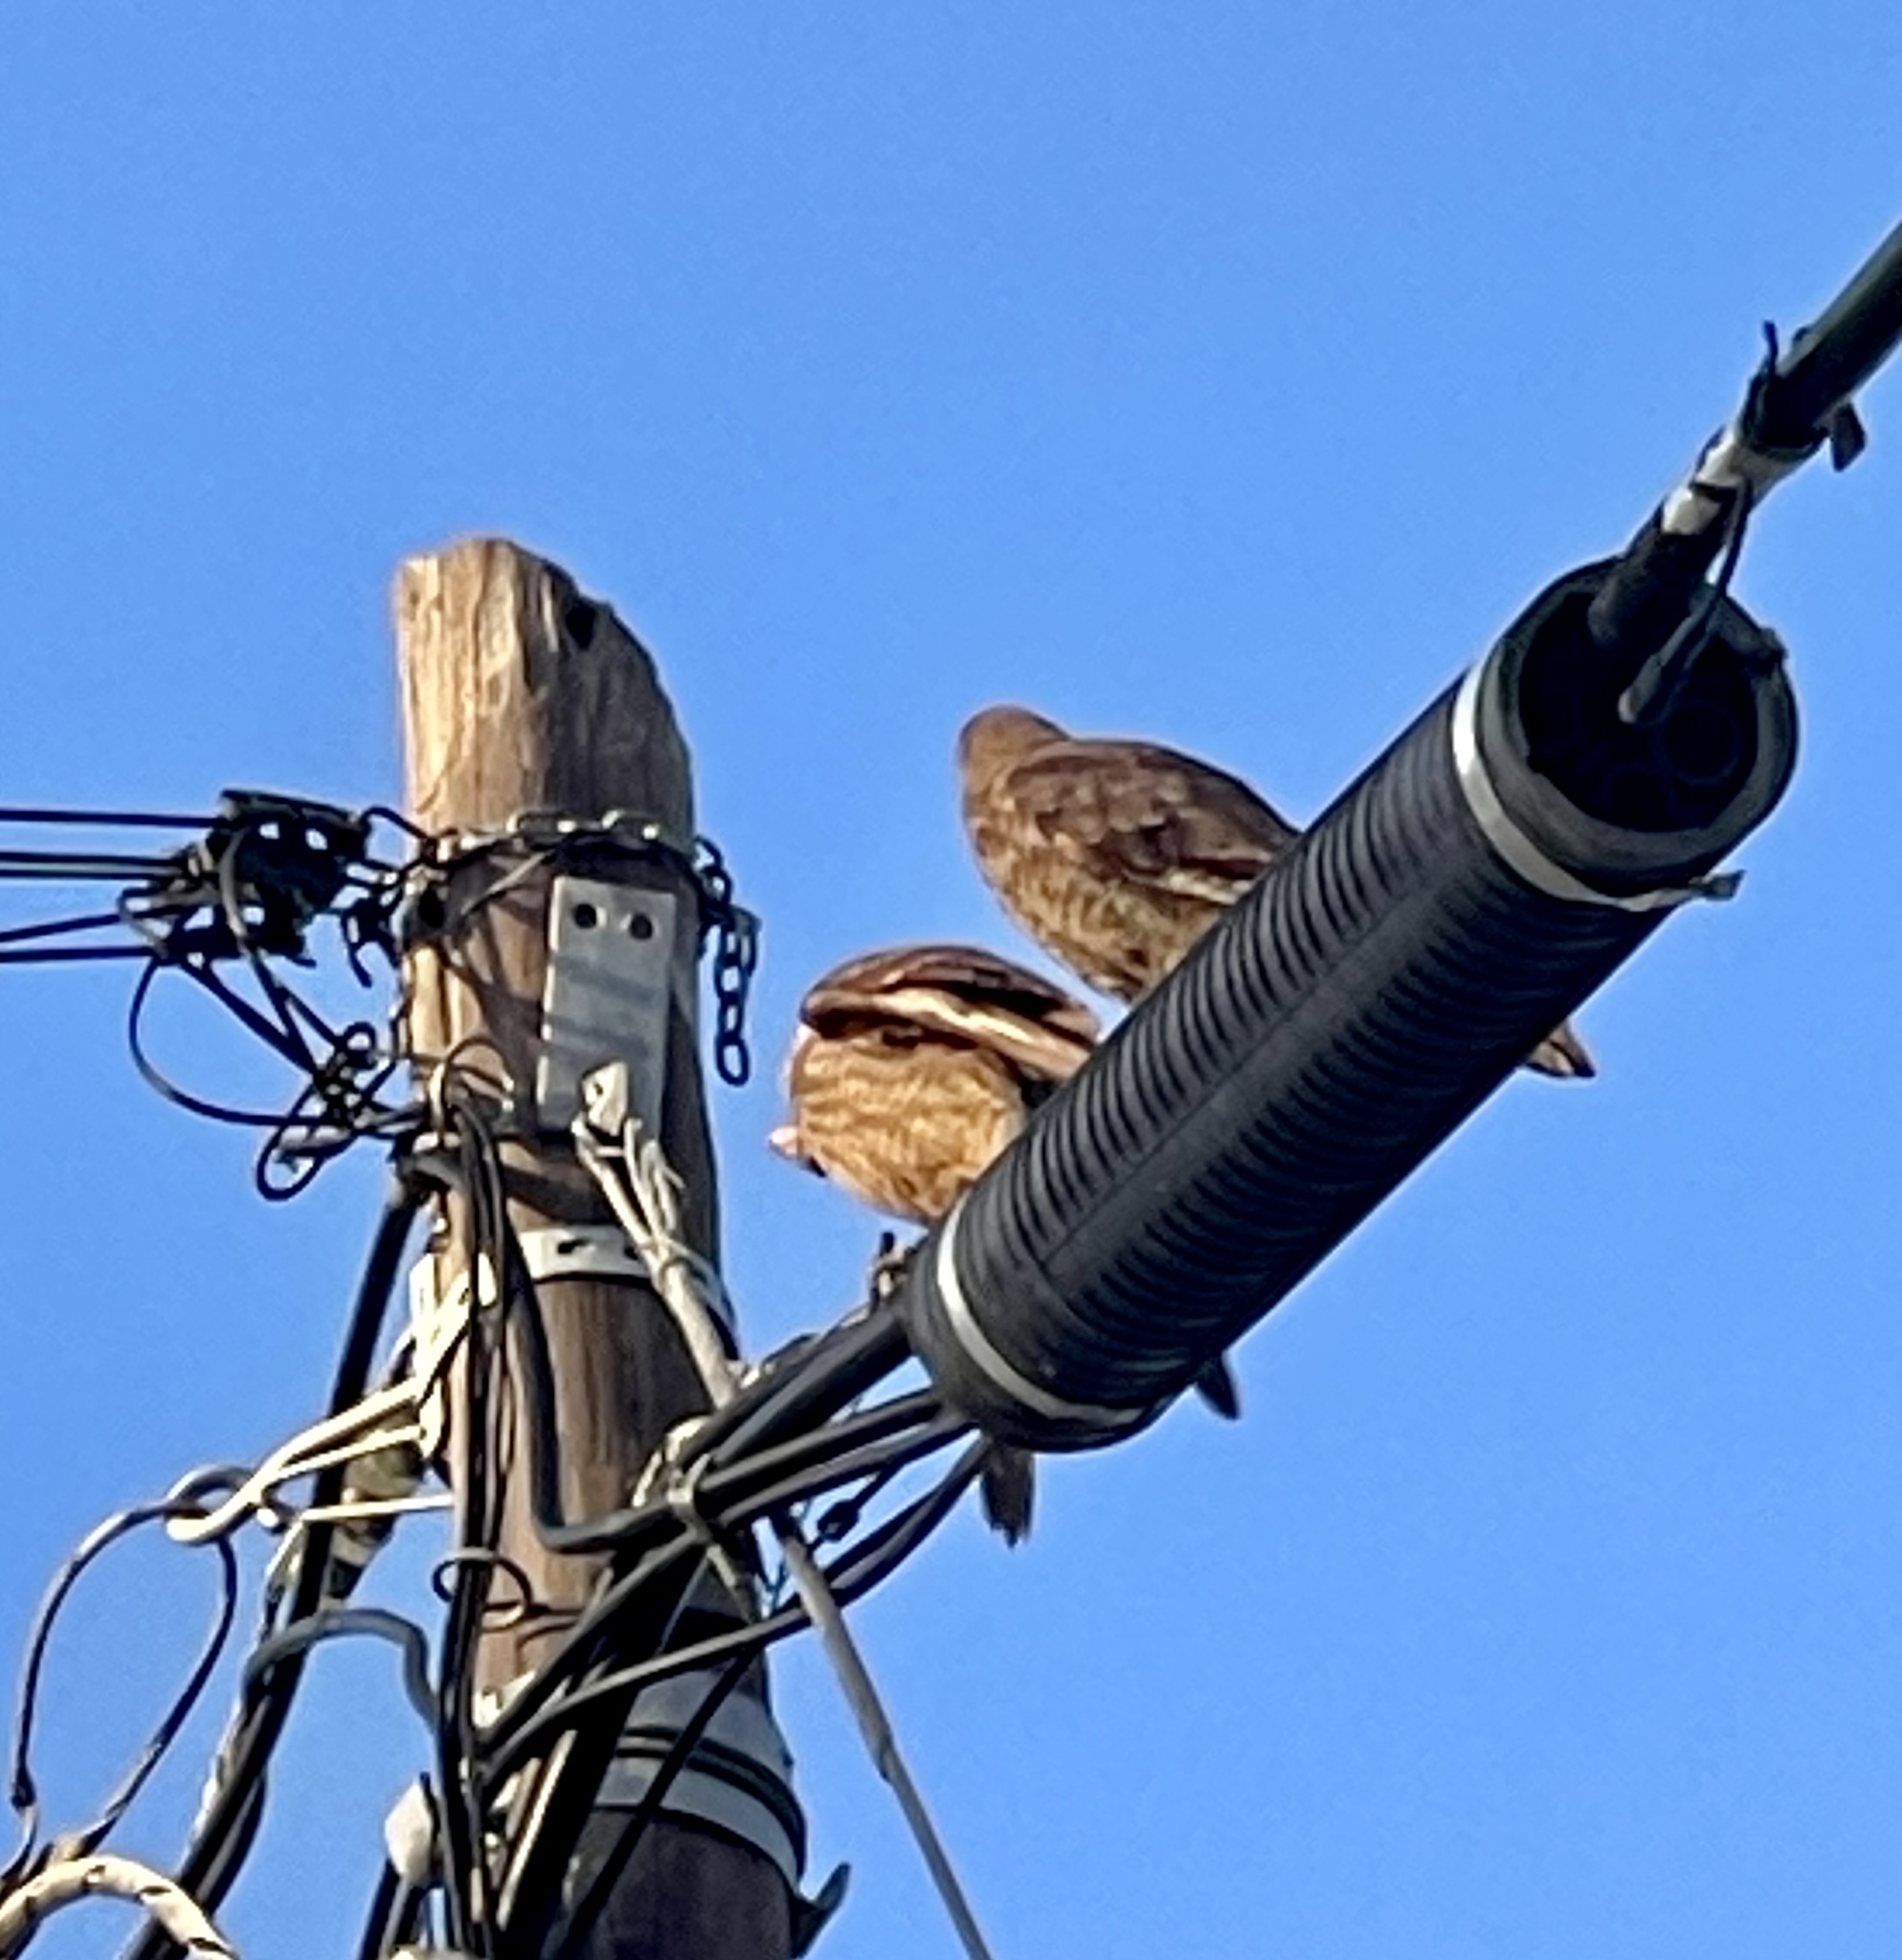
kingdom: Animalia
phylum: Chordata
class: Aves
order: Falconiformes
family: Falconidae
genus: Daptrius
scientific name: Daptrius
